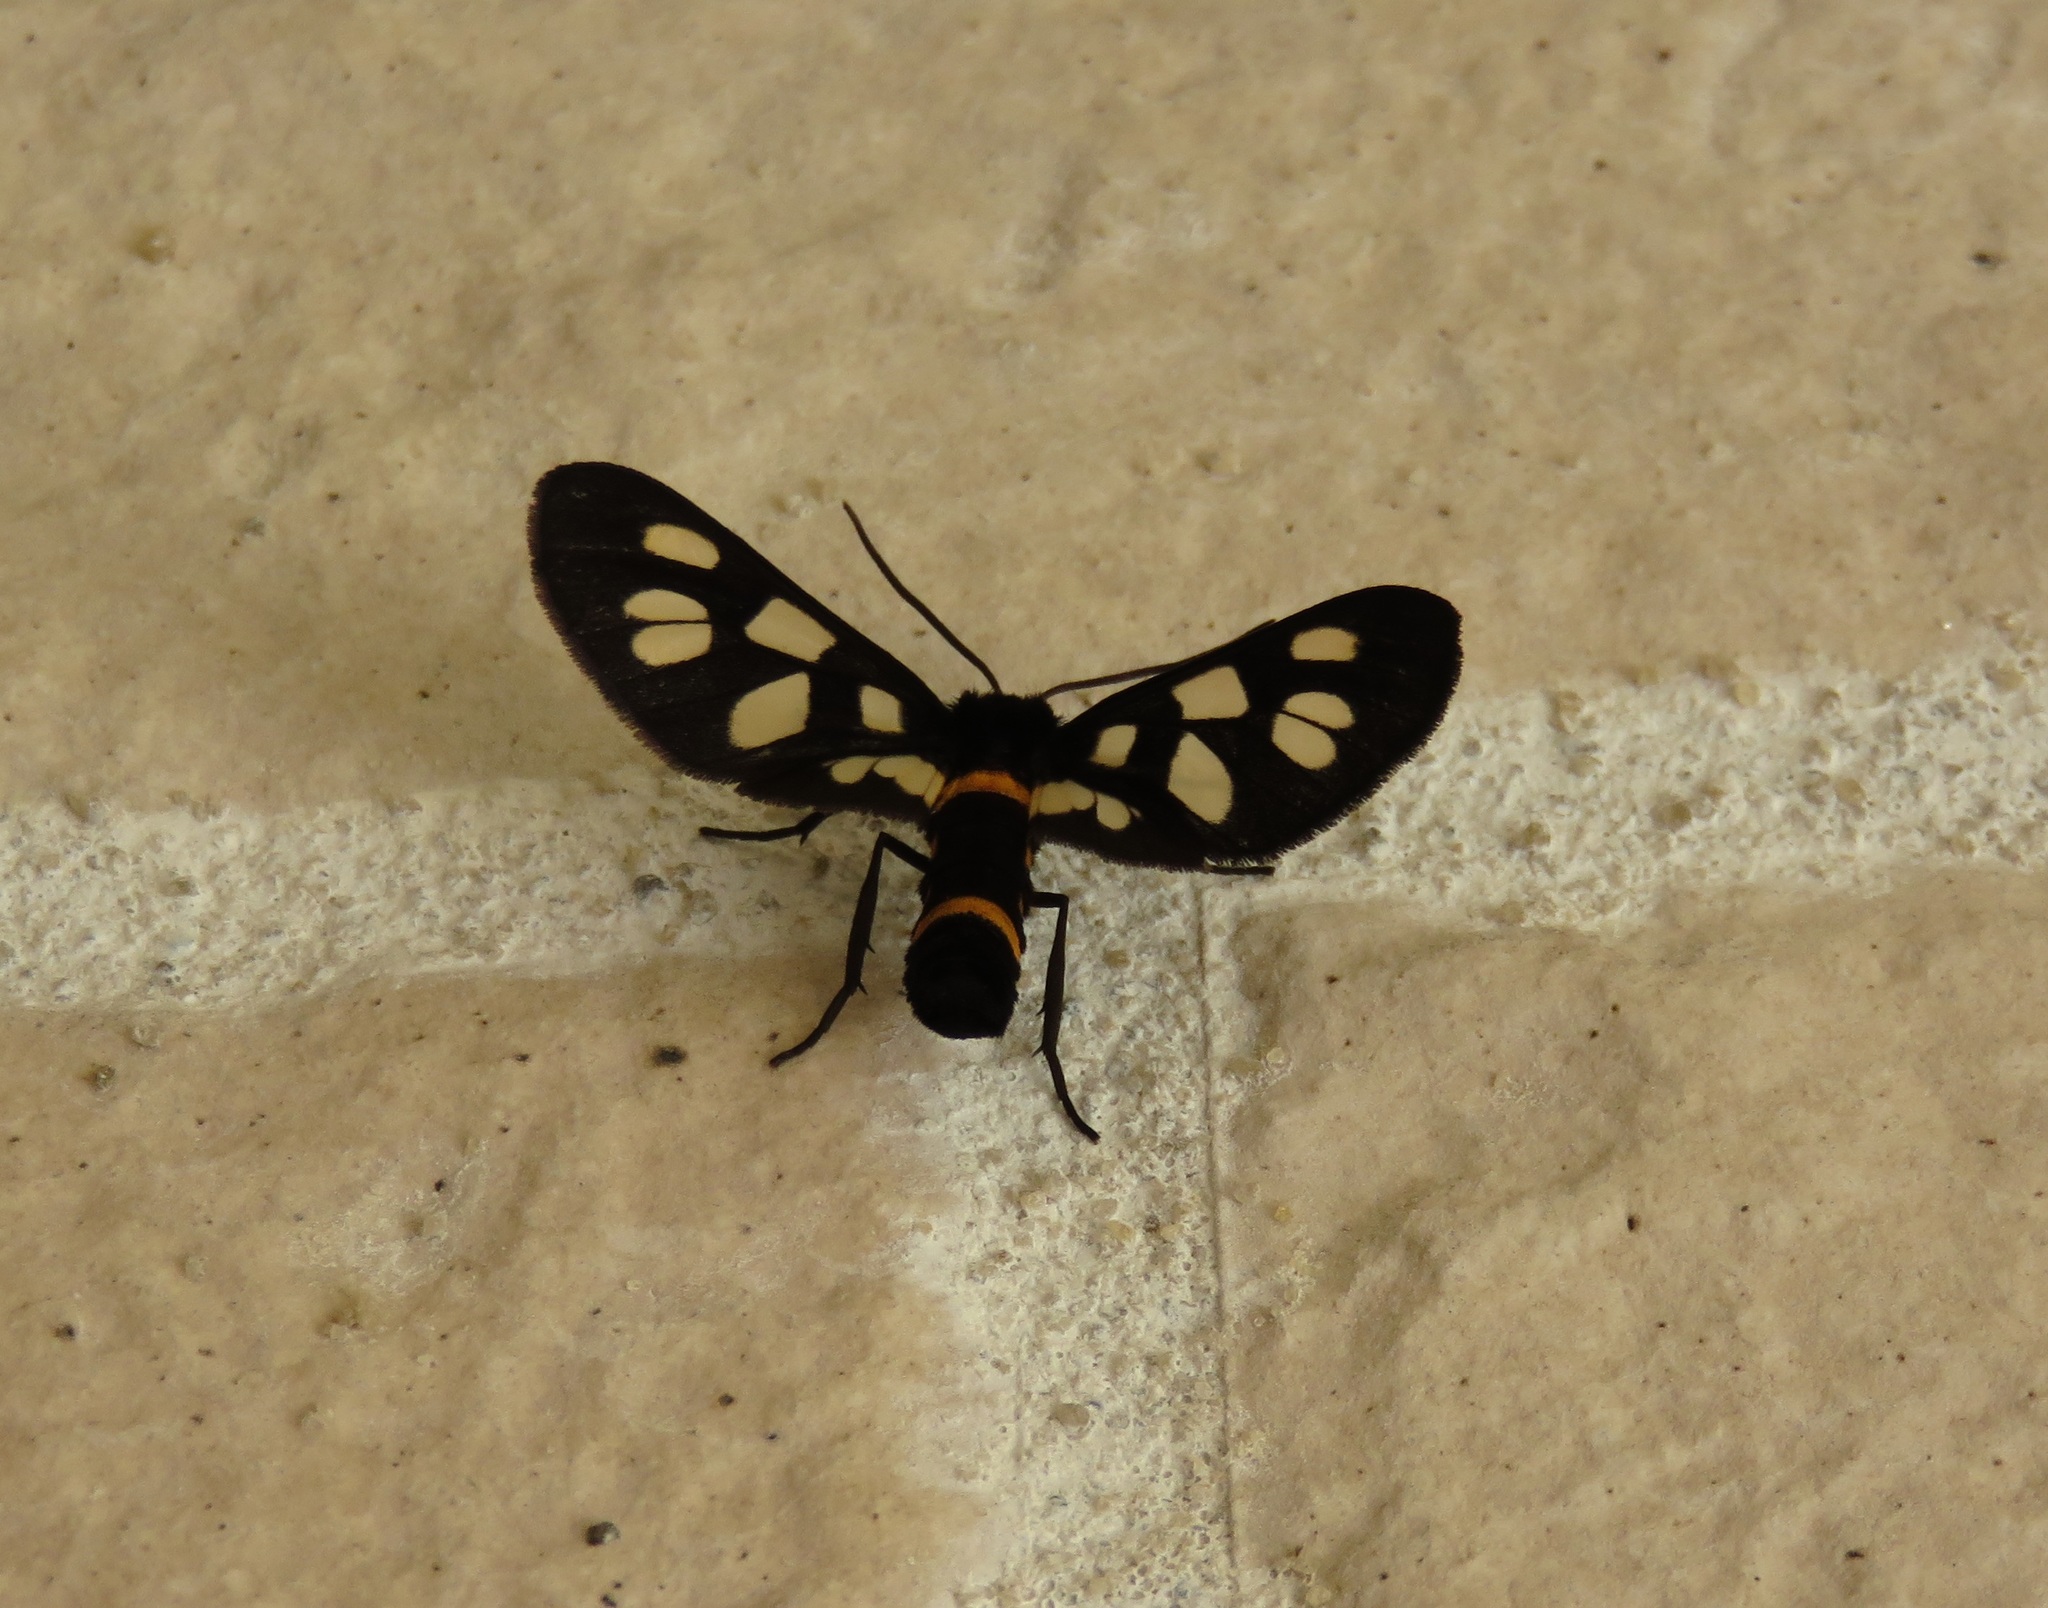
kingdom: Animalia
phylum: Arthropoda
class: Insecta
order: Lepidoptera
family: Erebidae
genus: Amata
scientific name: Amata fortunei
